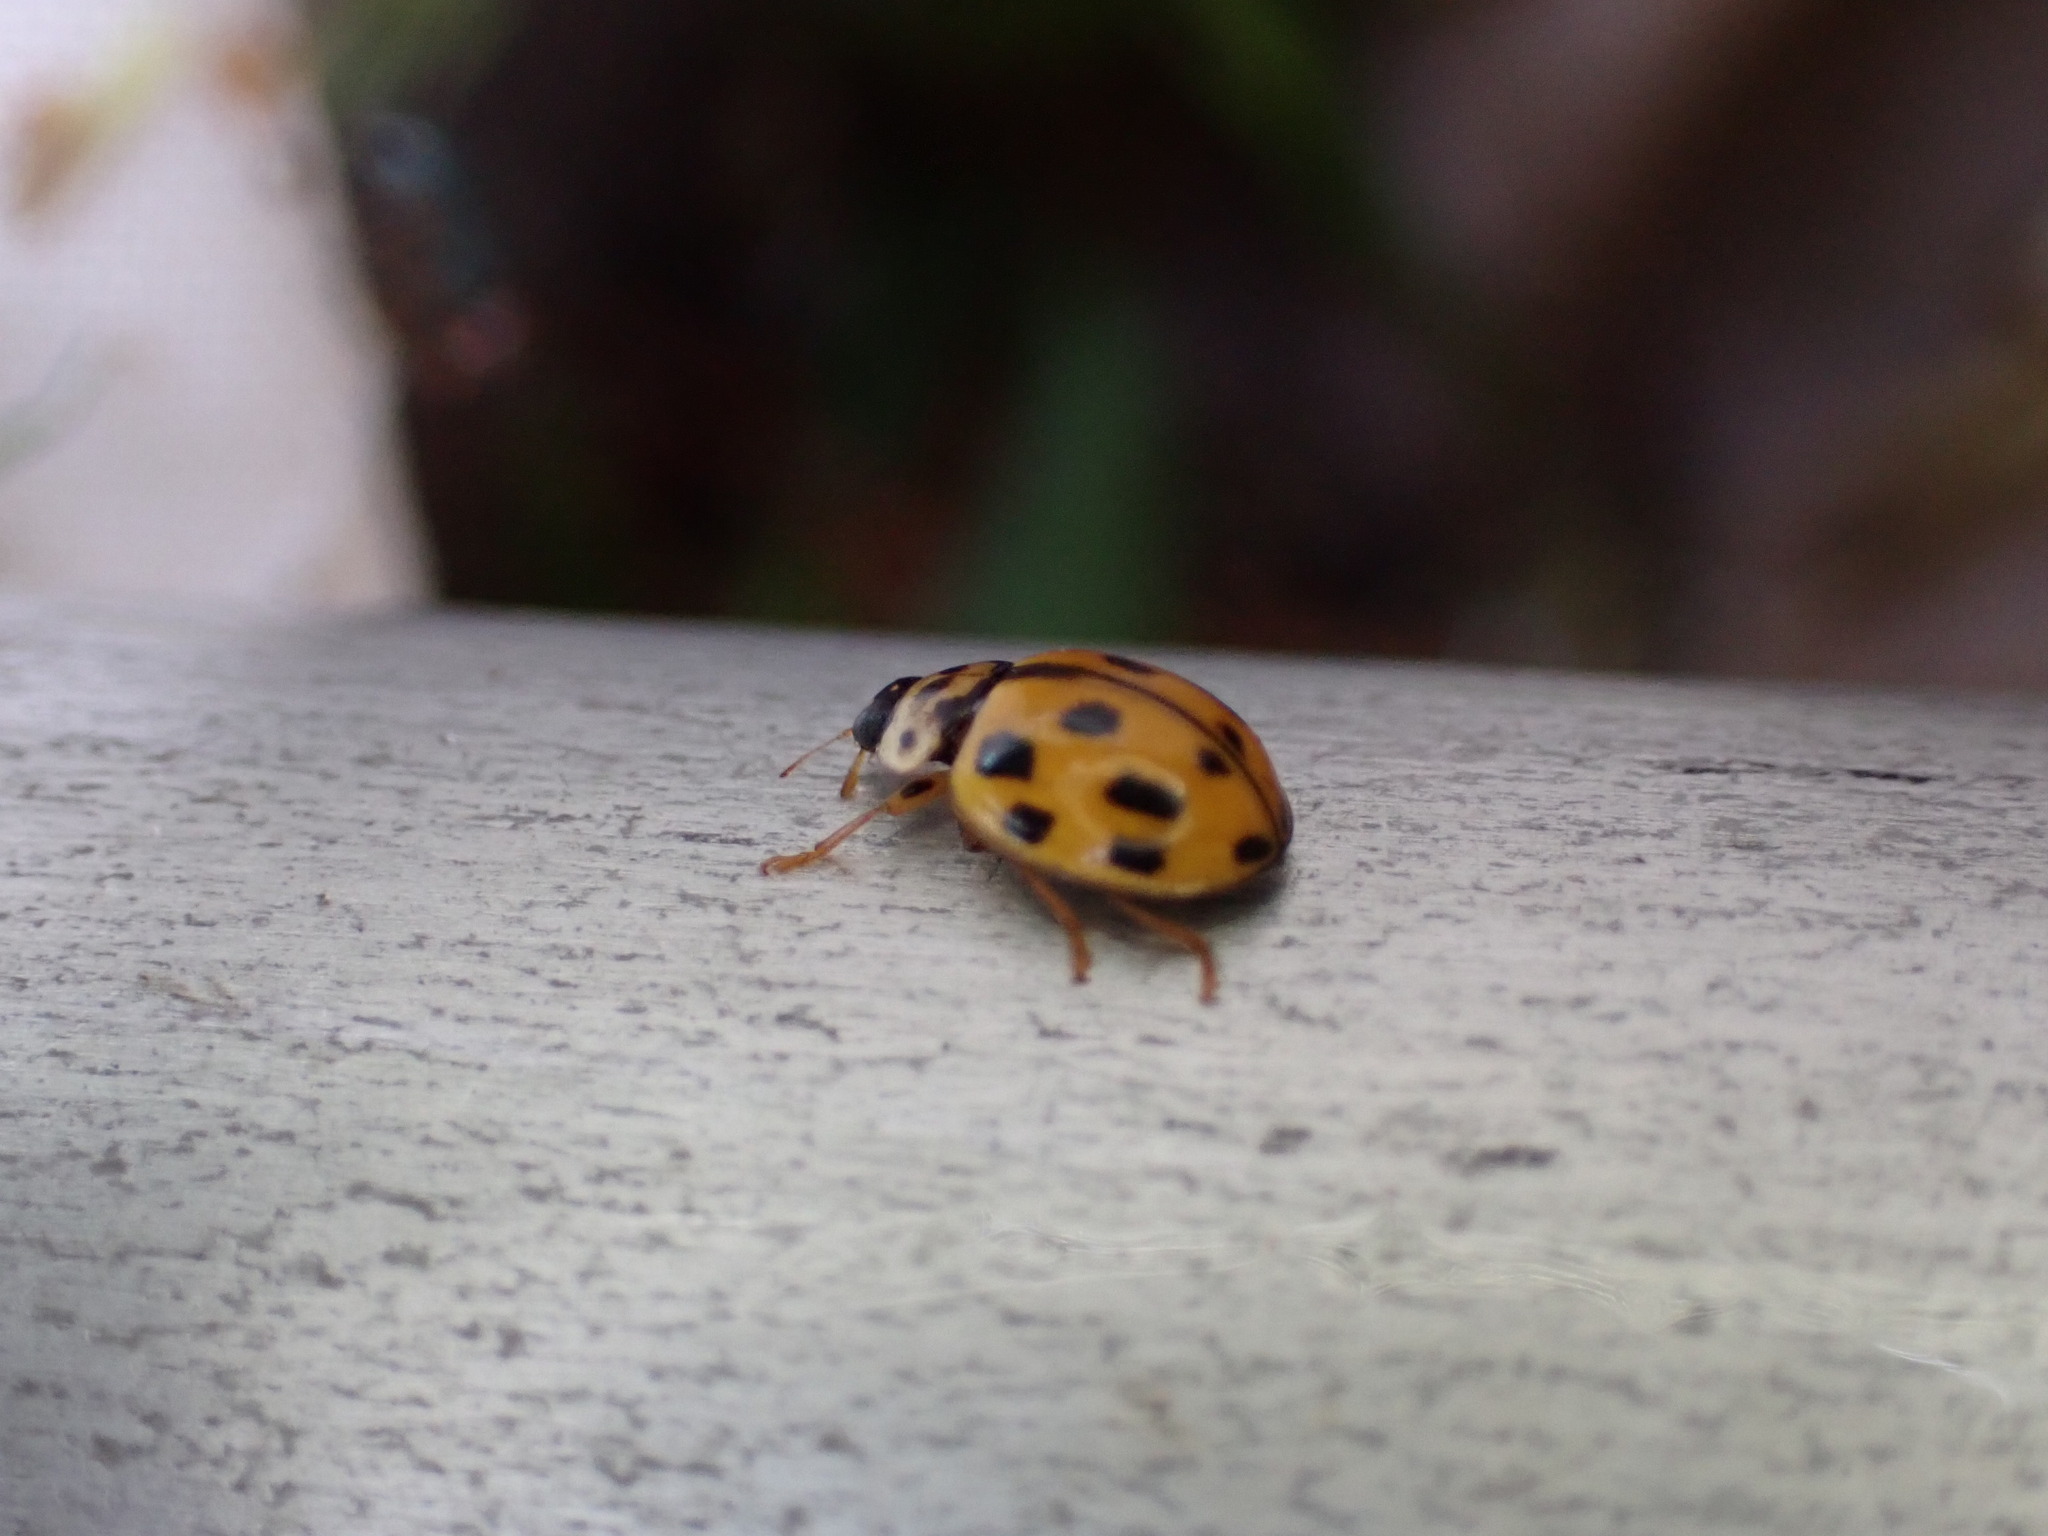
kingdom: Animalia
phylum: Arthropoda
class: Insecta
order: Coleoptera
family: Coccinellidae
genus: Propylaea
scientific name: Propylaea quatuordecimpunctata
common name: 14-spotted ladybird beetle
